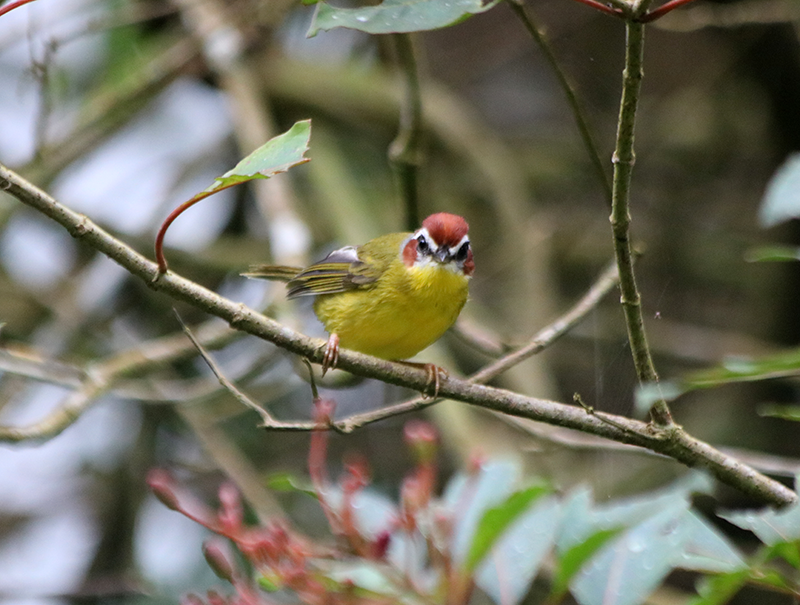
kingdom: Animalia
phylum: Chordata
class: Aves
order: Passeriformes
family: Parulidae
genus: Basileuterus
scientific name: Basileuterus rufifrons
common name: Rufous-capped warbler
